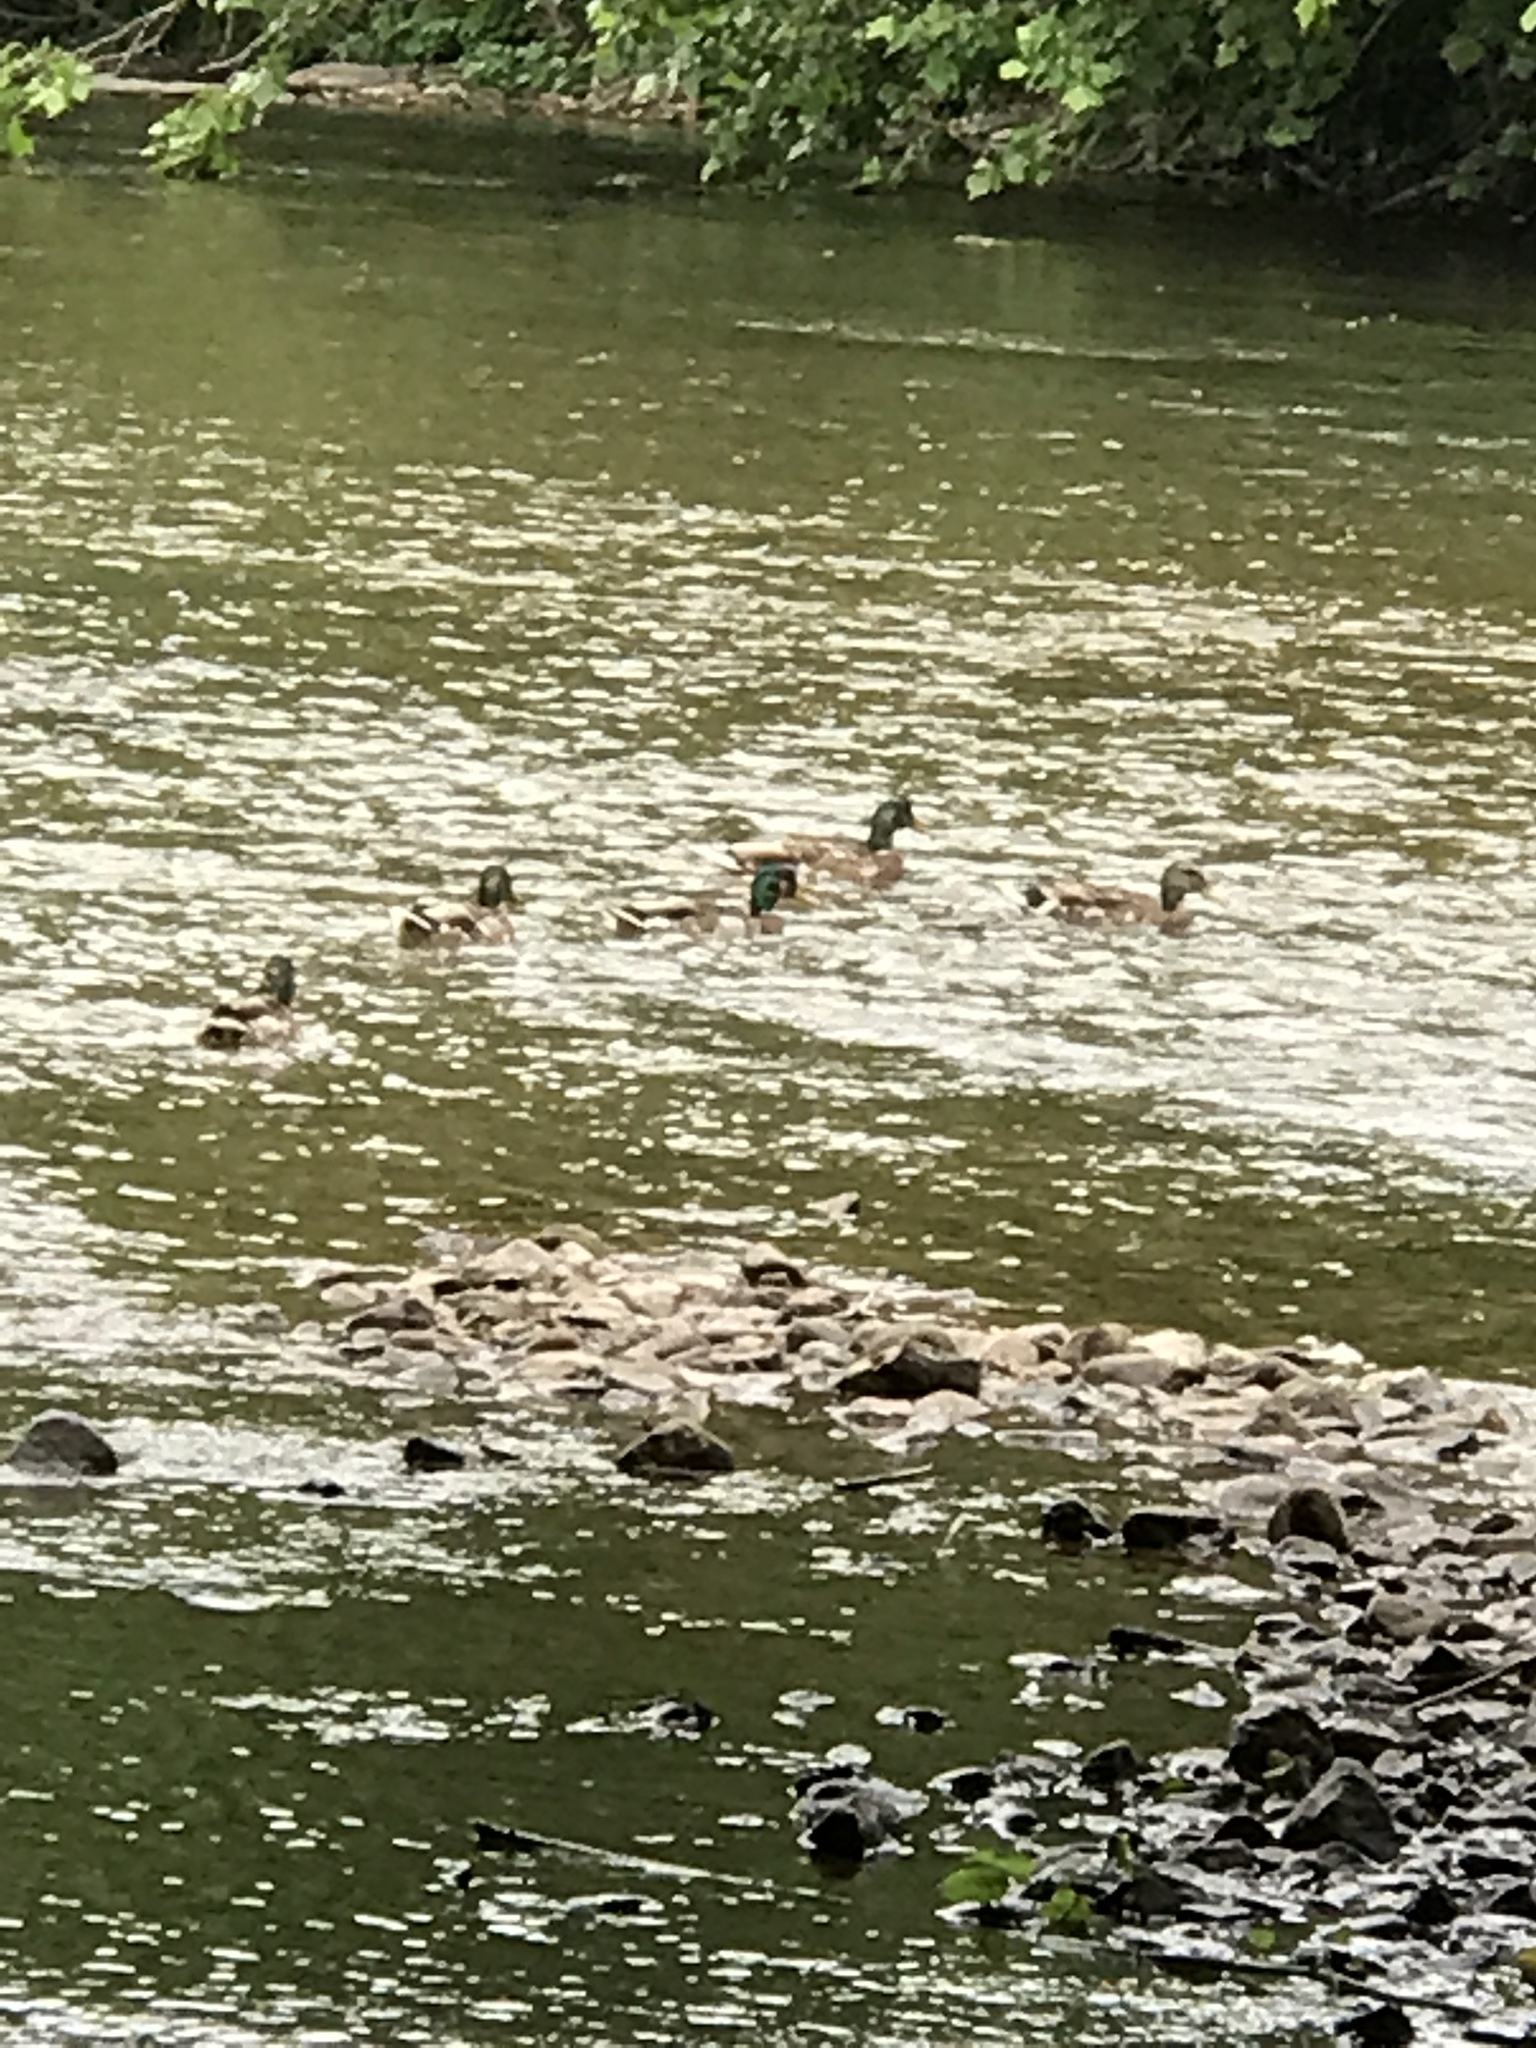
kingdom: Animalia
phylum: Chordata
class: Aves
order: Anseriformes
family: Anatidae
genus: Anas
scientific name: Anas platyrhynchos
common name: Mallard
